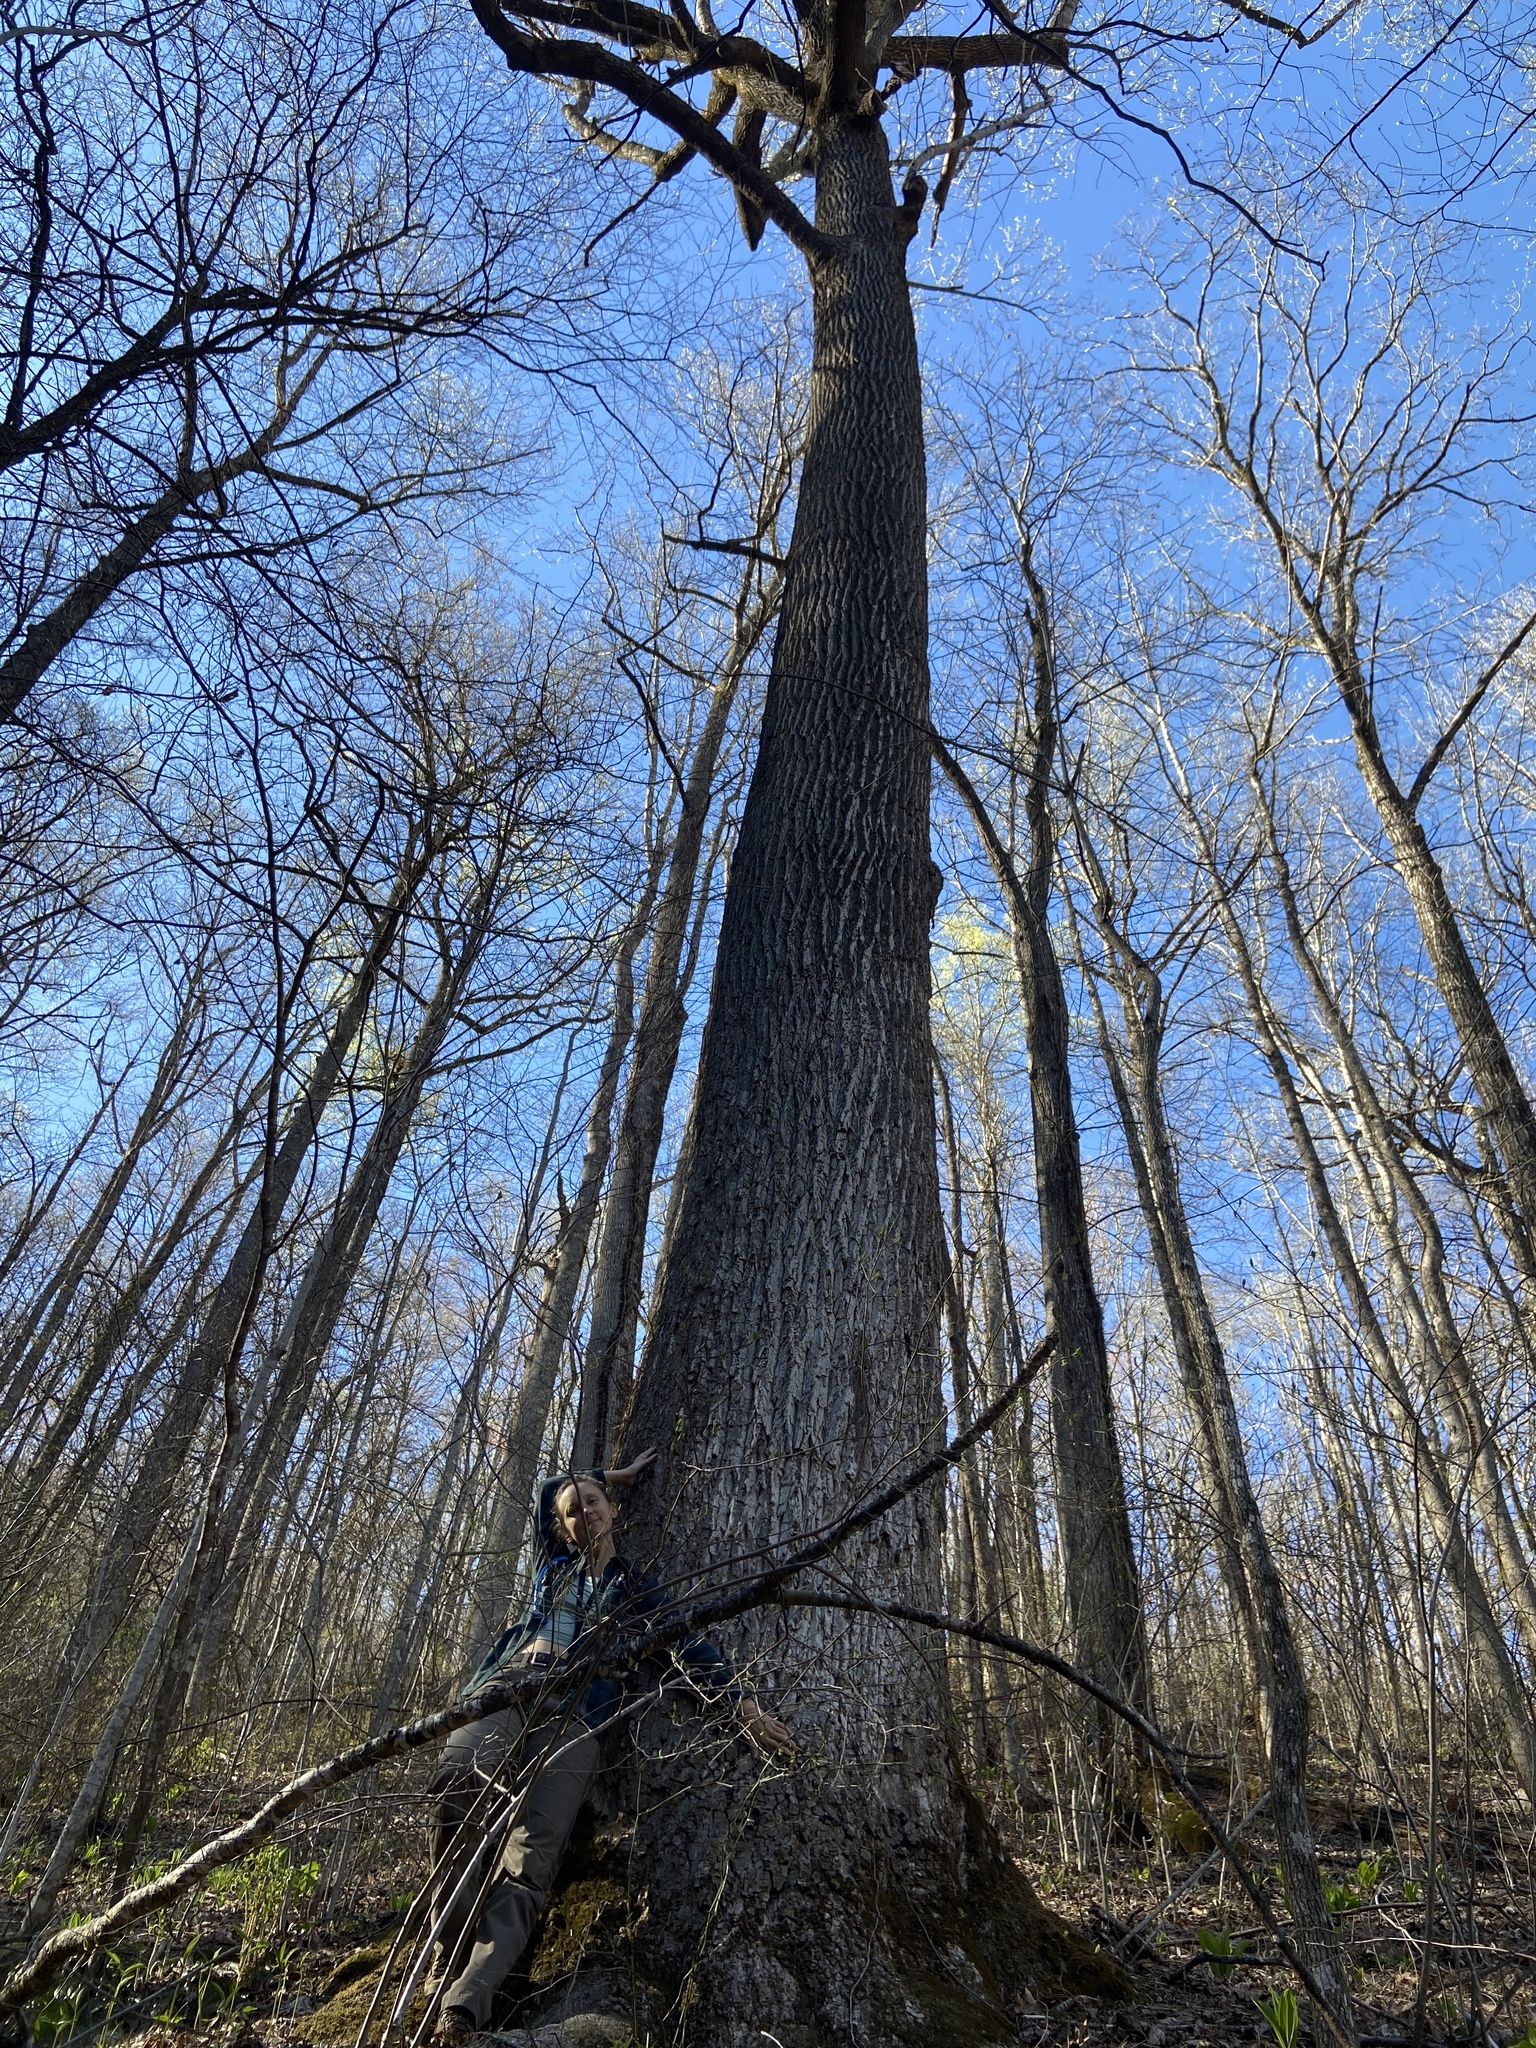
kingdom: Plantae
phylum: Tracheophyta
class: Magnoliopsida
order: Magnoliales
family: Magnoliaceae
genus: Liriodendron
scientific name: Liriodendron tulipifera
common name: Tulip tree
